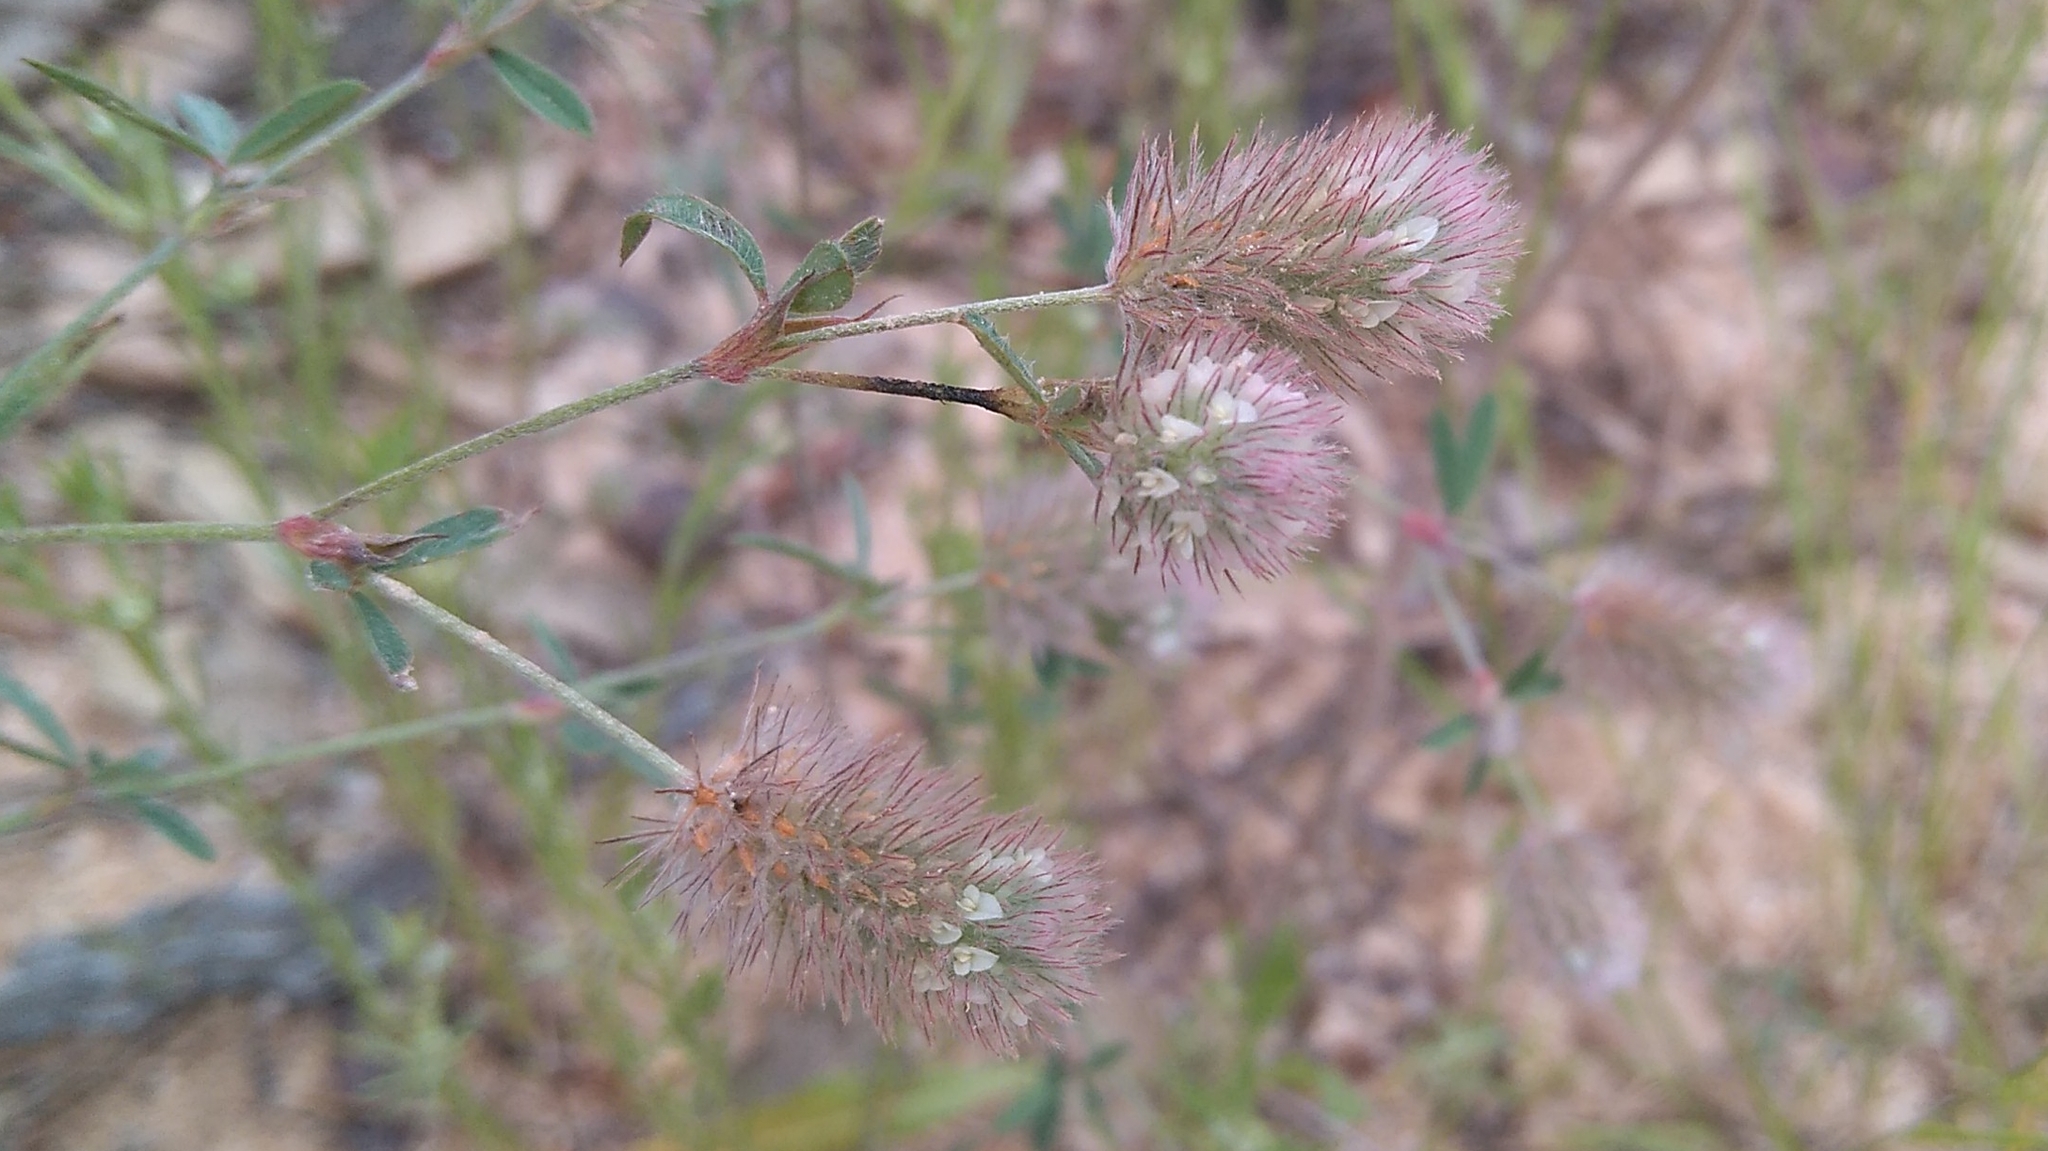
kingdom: Plantae
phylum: Tracheophyta
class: Magnoliopsida
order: Fabales
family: Fabaceae
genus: Trifolium
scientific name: Trifolium arvense
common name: Hare's-foot clover
